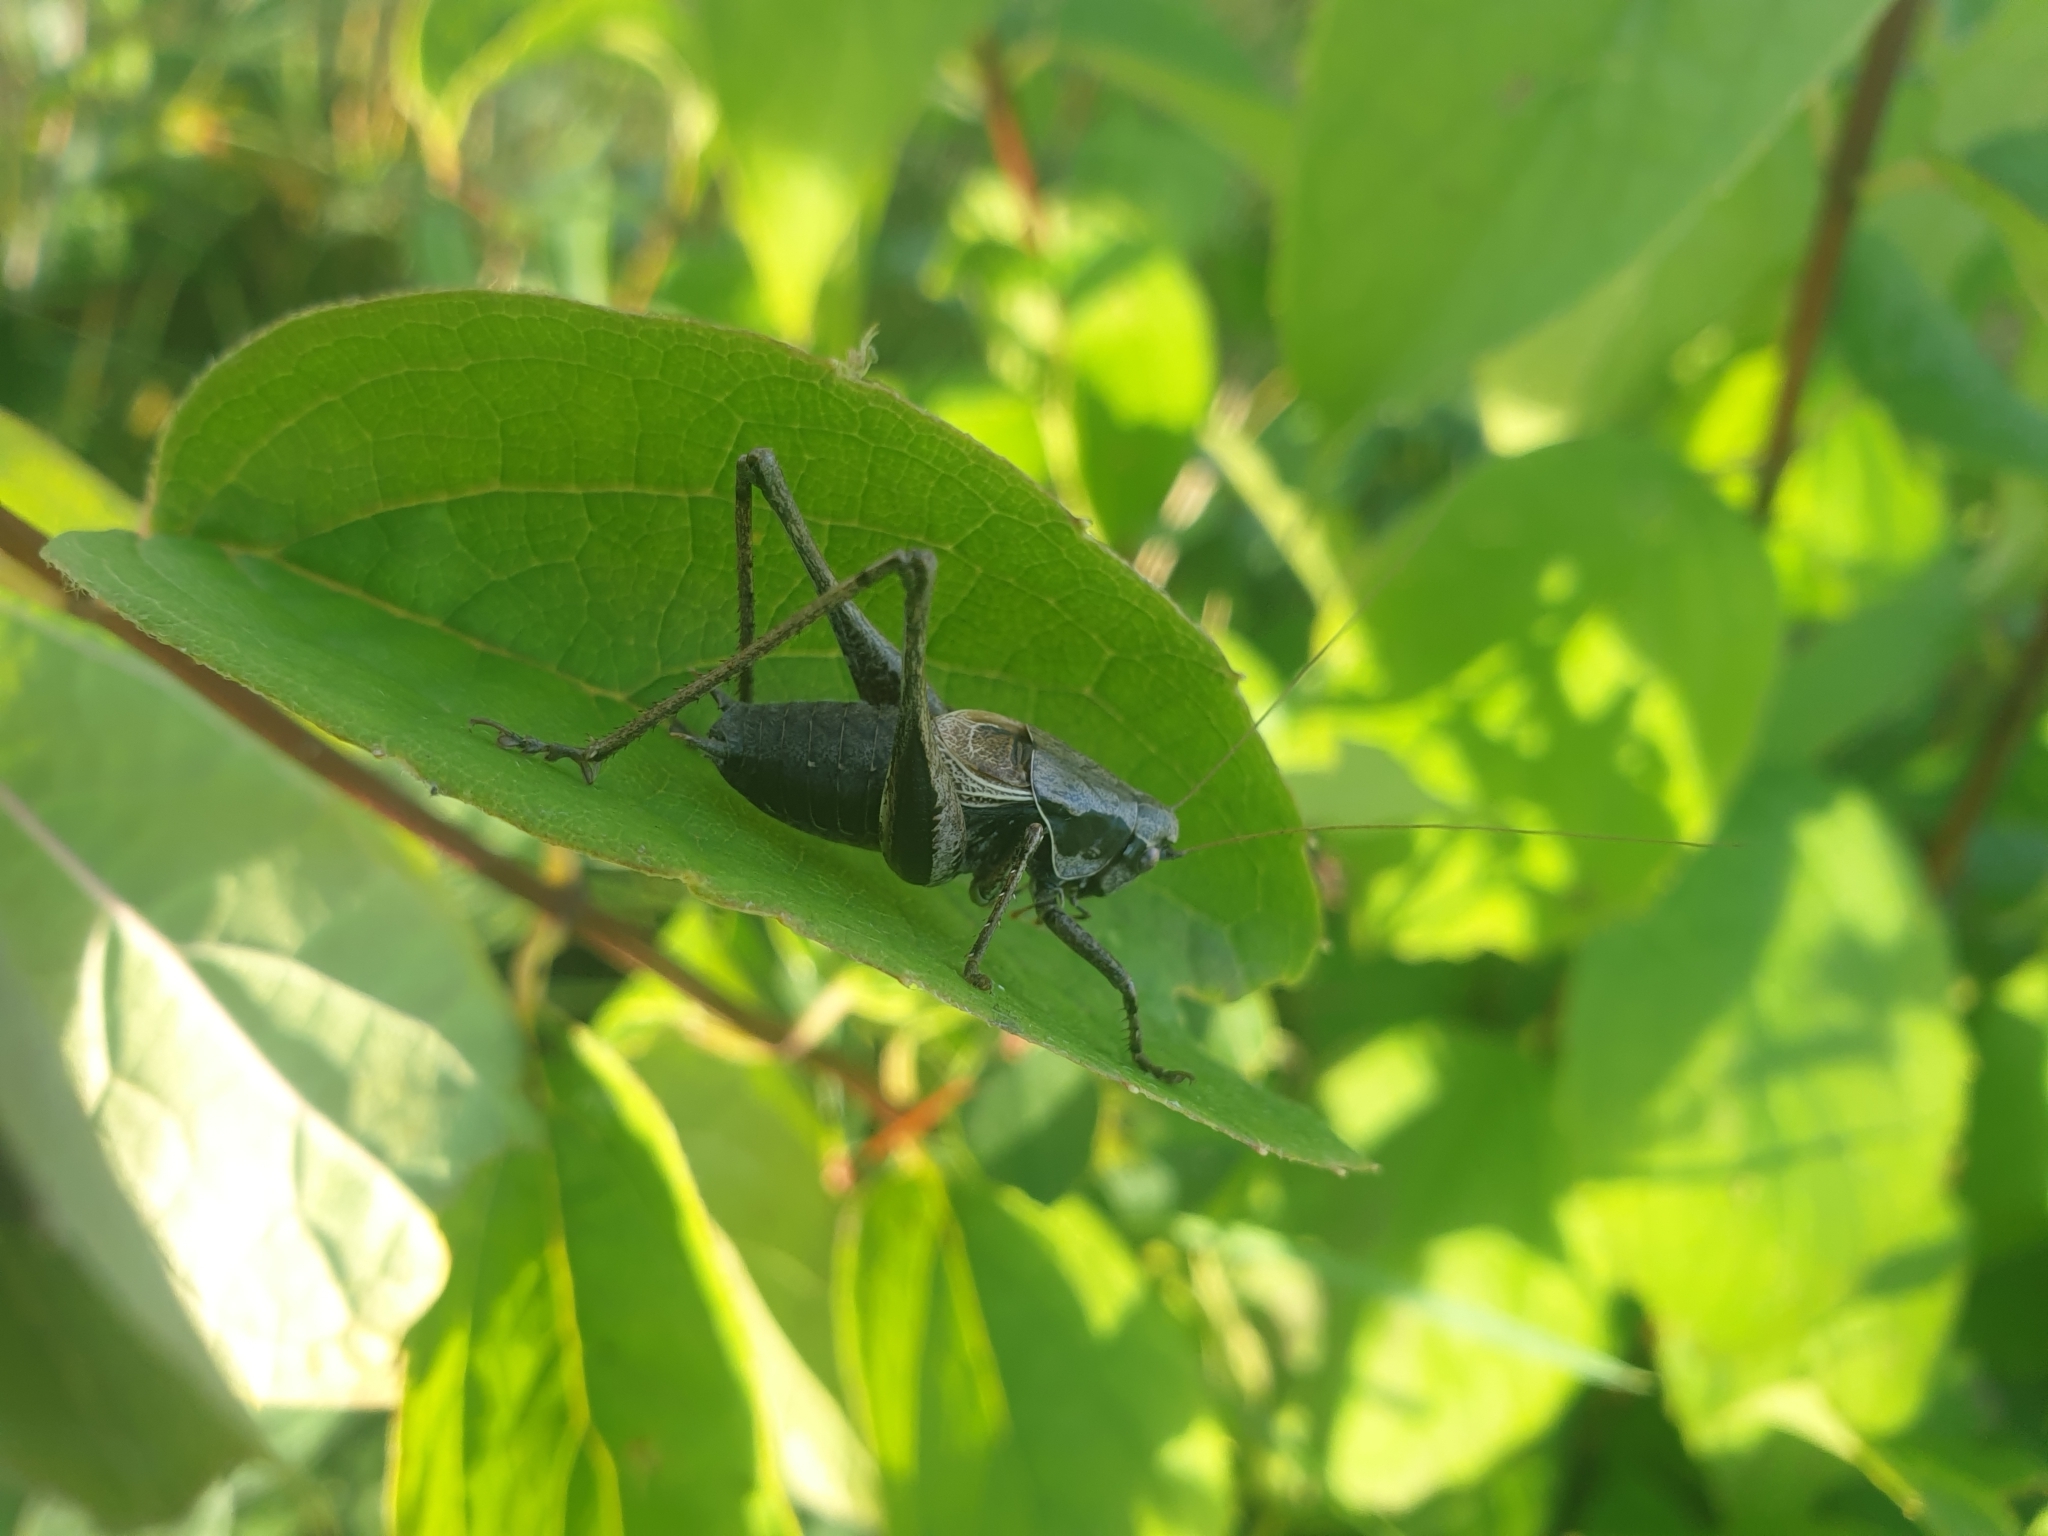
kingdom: Animalia
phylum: Arthropoda
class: Insecta
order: Orthoptera
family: Tettigoniidae
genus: Pholidoptera
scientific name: Pholidoptera griseoaptera
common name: Dark bush-cricket
